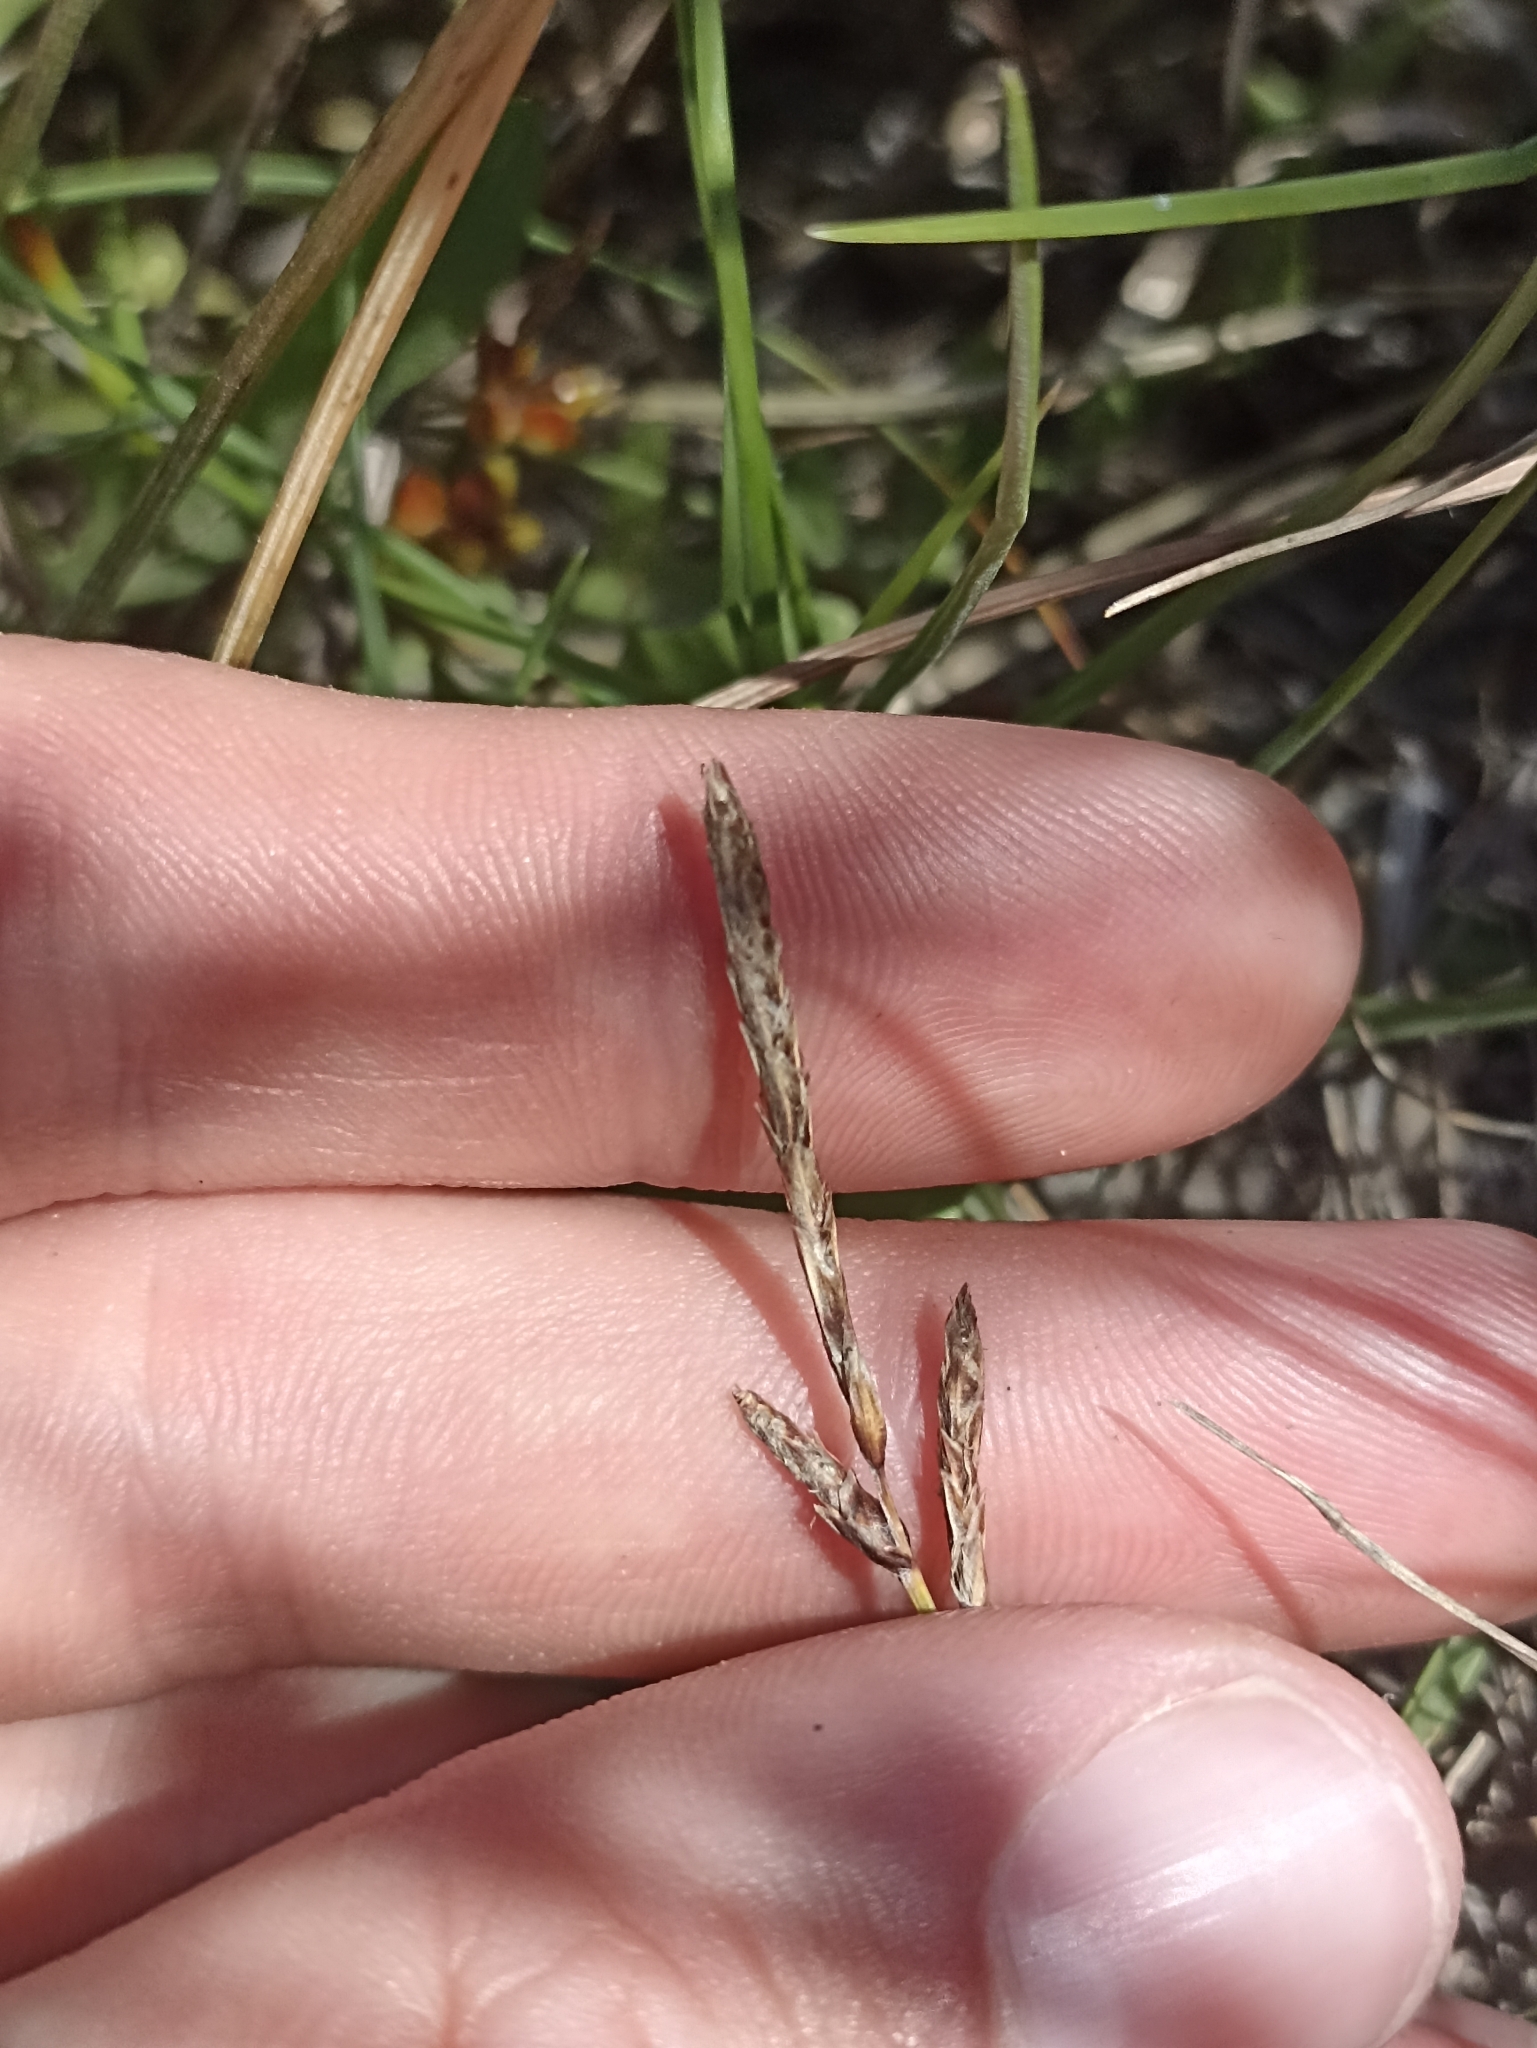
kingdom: Plantae
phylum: Tracheophyta
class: Liliopsida
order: Poales
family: Cyperaceae
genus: Carex
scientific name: Carex pumila
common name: Dwarf sedge
